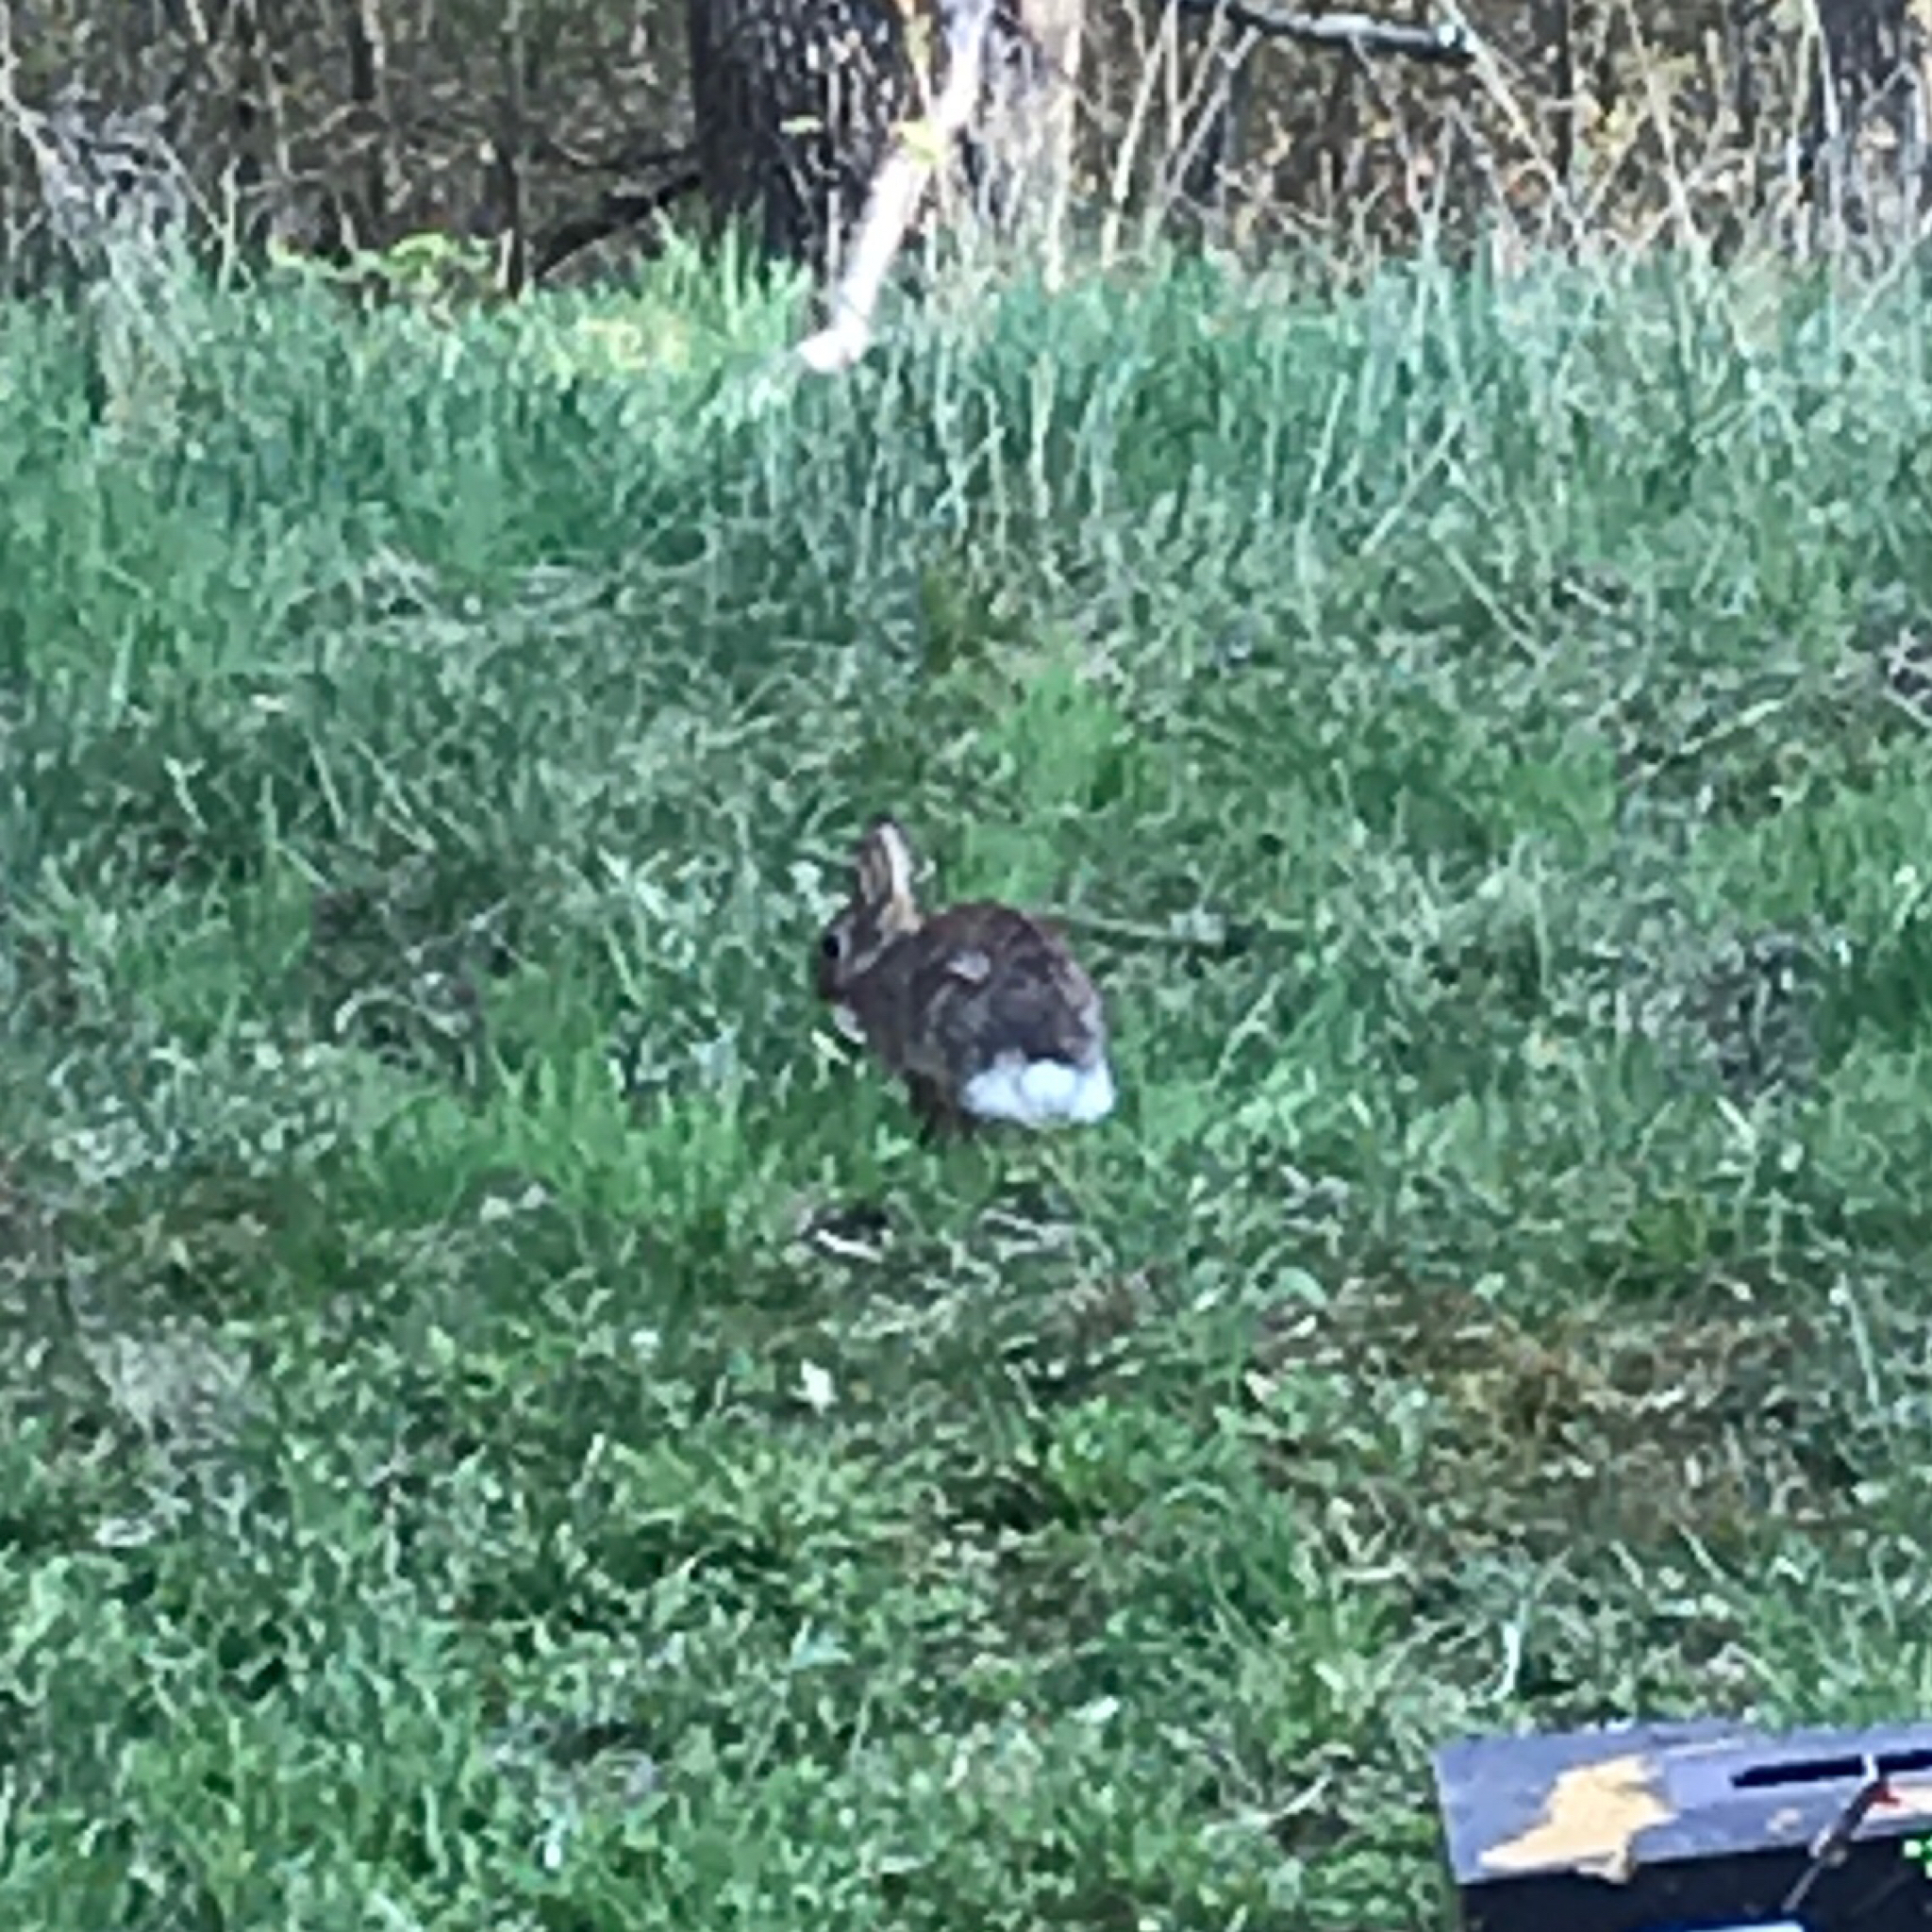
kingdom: Animalia
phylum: Chordata
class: Mammalia
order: Lagomorpha
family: Leporidae
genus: Sylvilagus
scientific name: Sylvilagus floridanus
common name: Eastern cottontail
